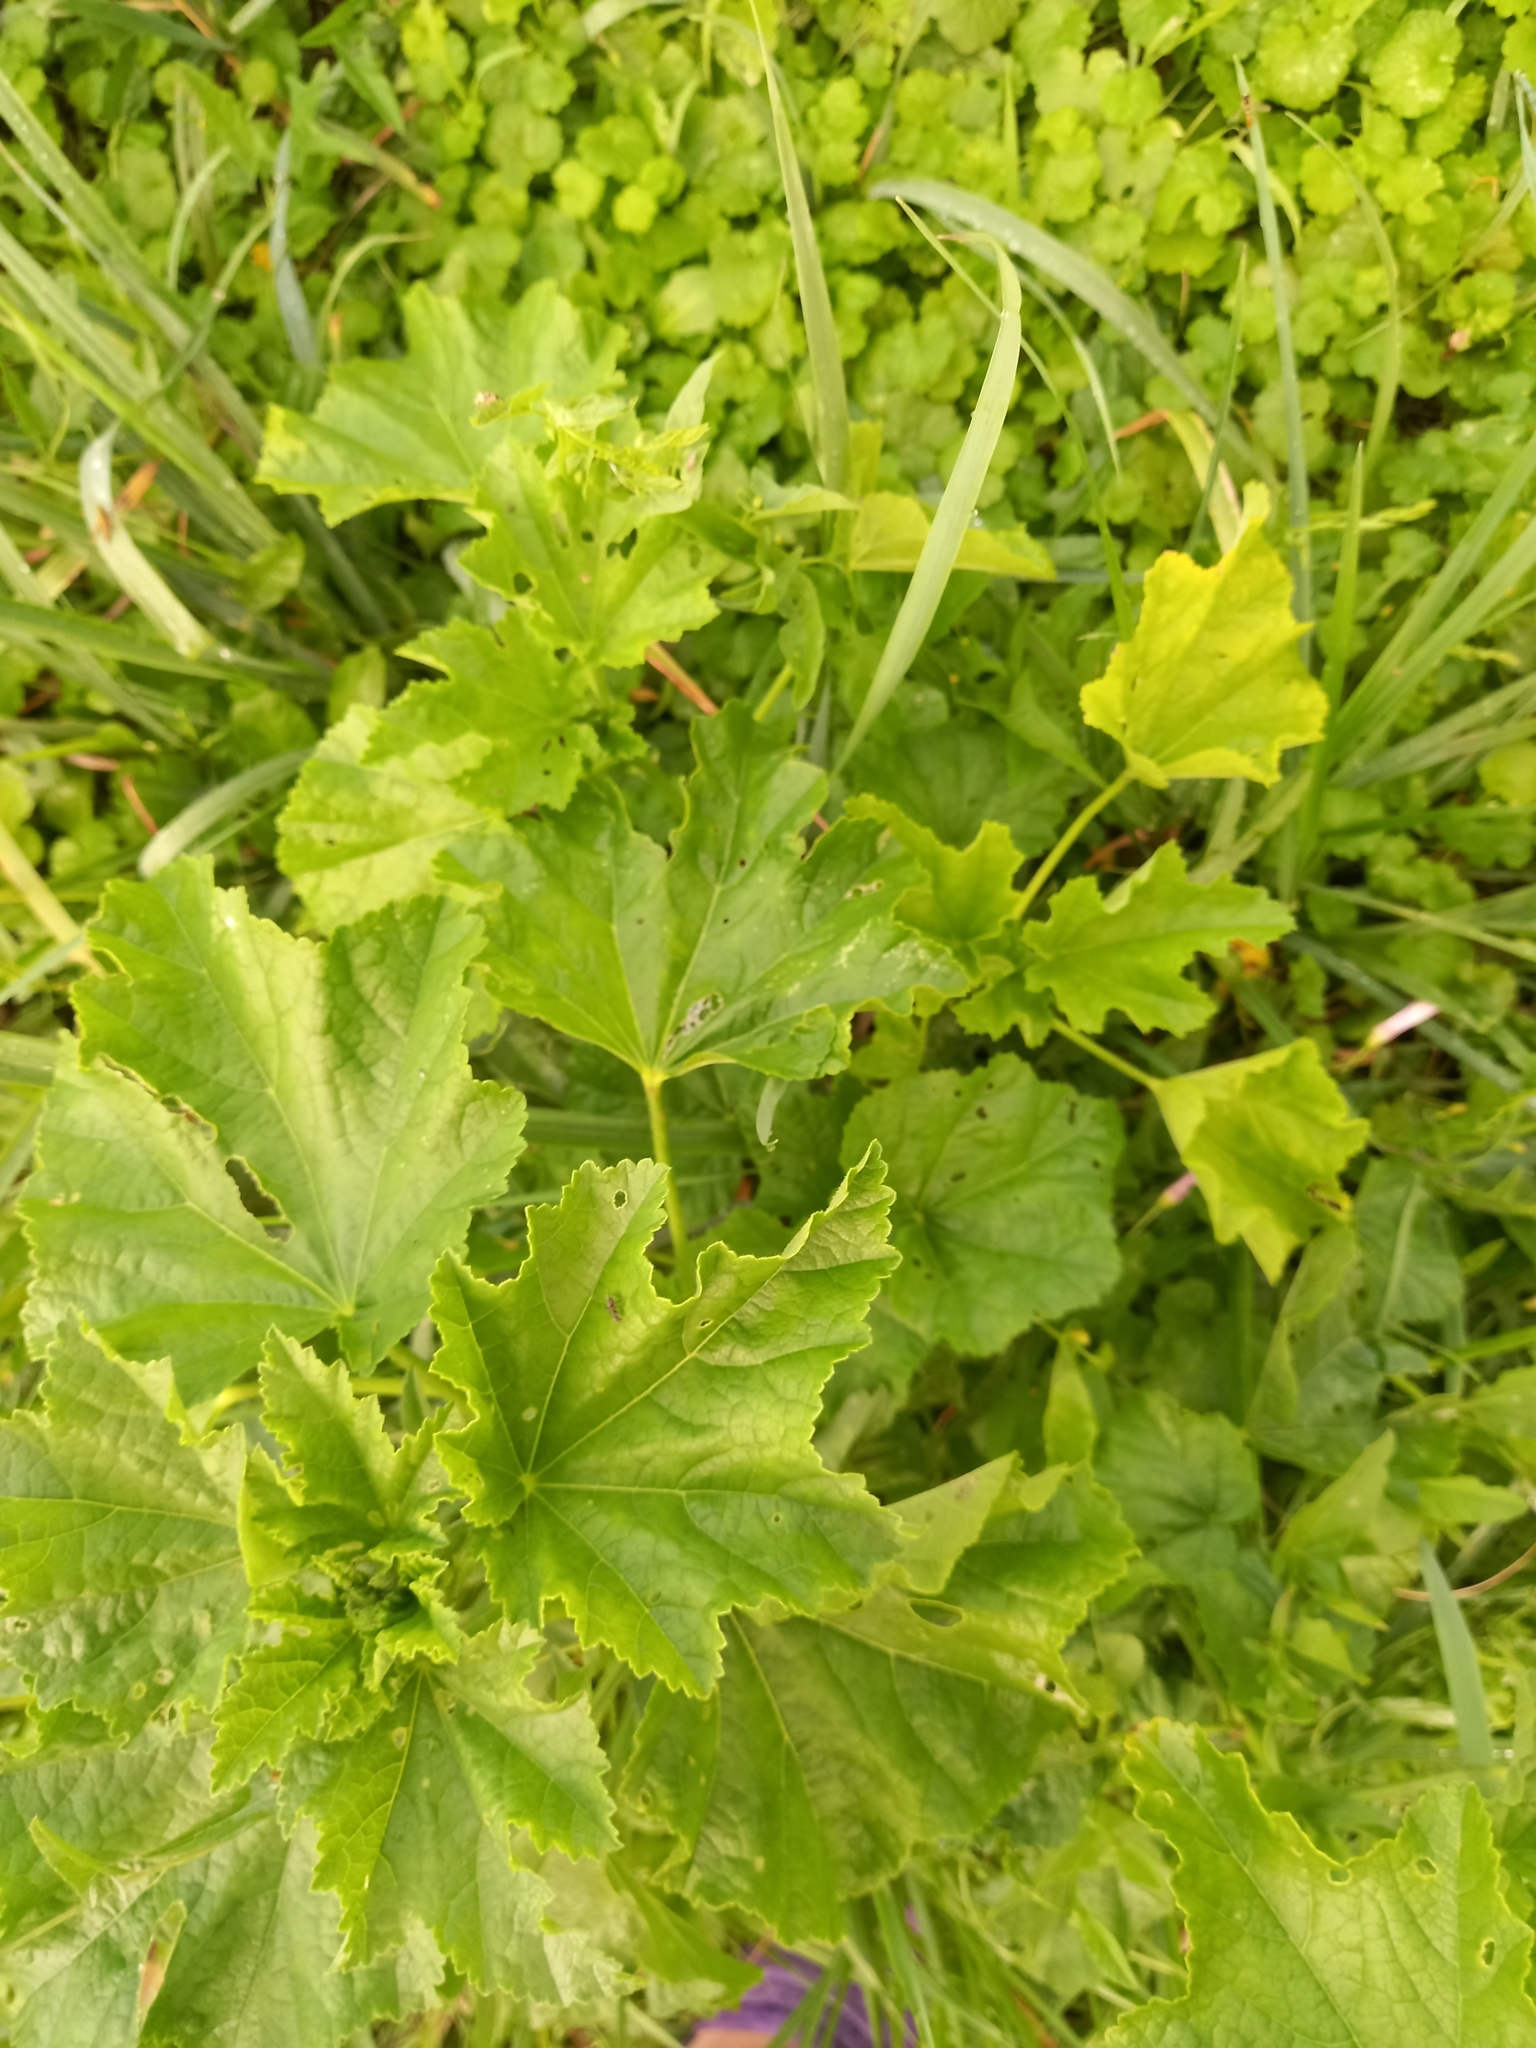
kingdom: Plantae
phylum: Tracheophyta
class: Magnoliopsida
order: Malvales
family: Malvaceae
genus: Malva
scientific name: Malva thuringiaca
